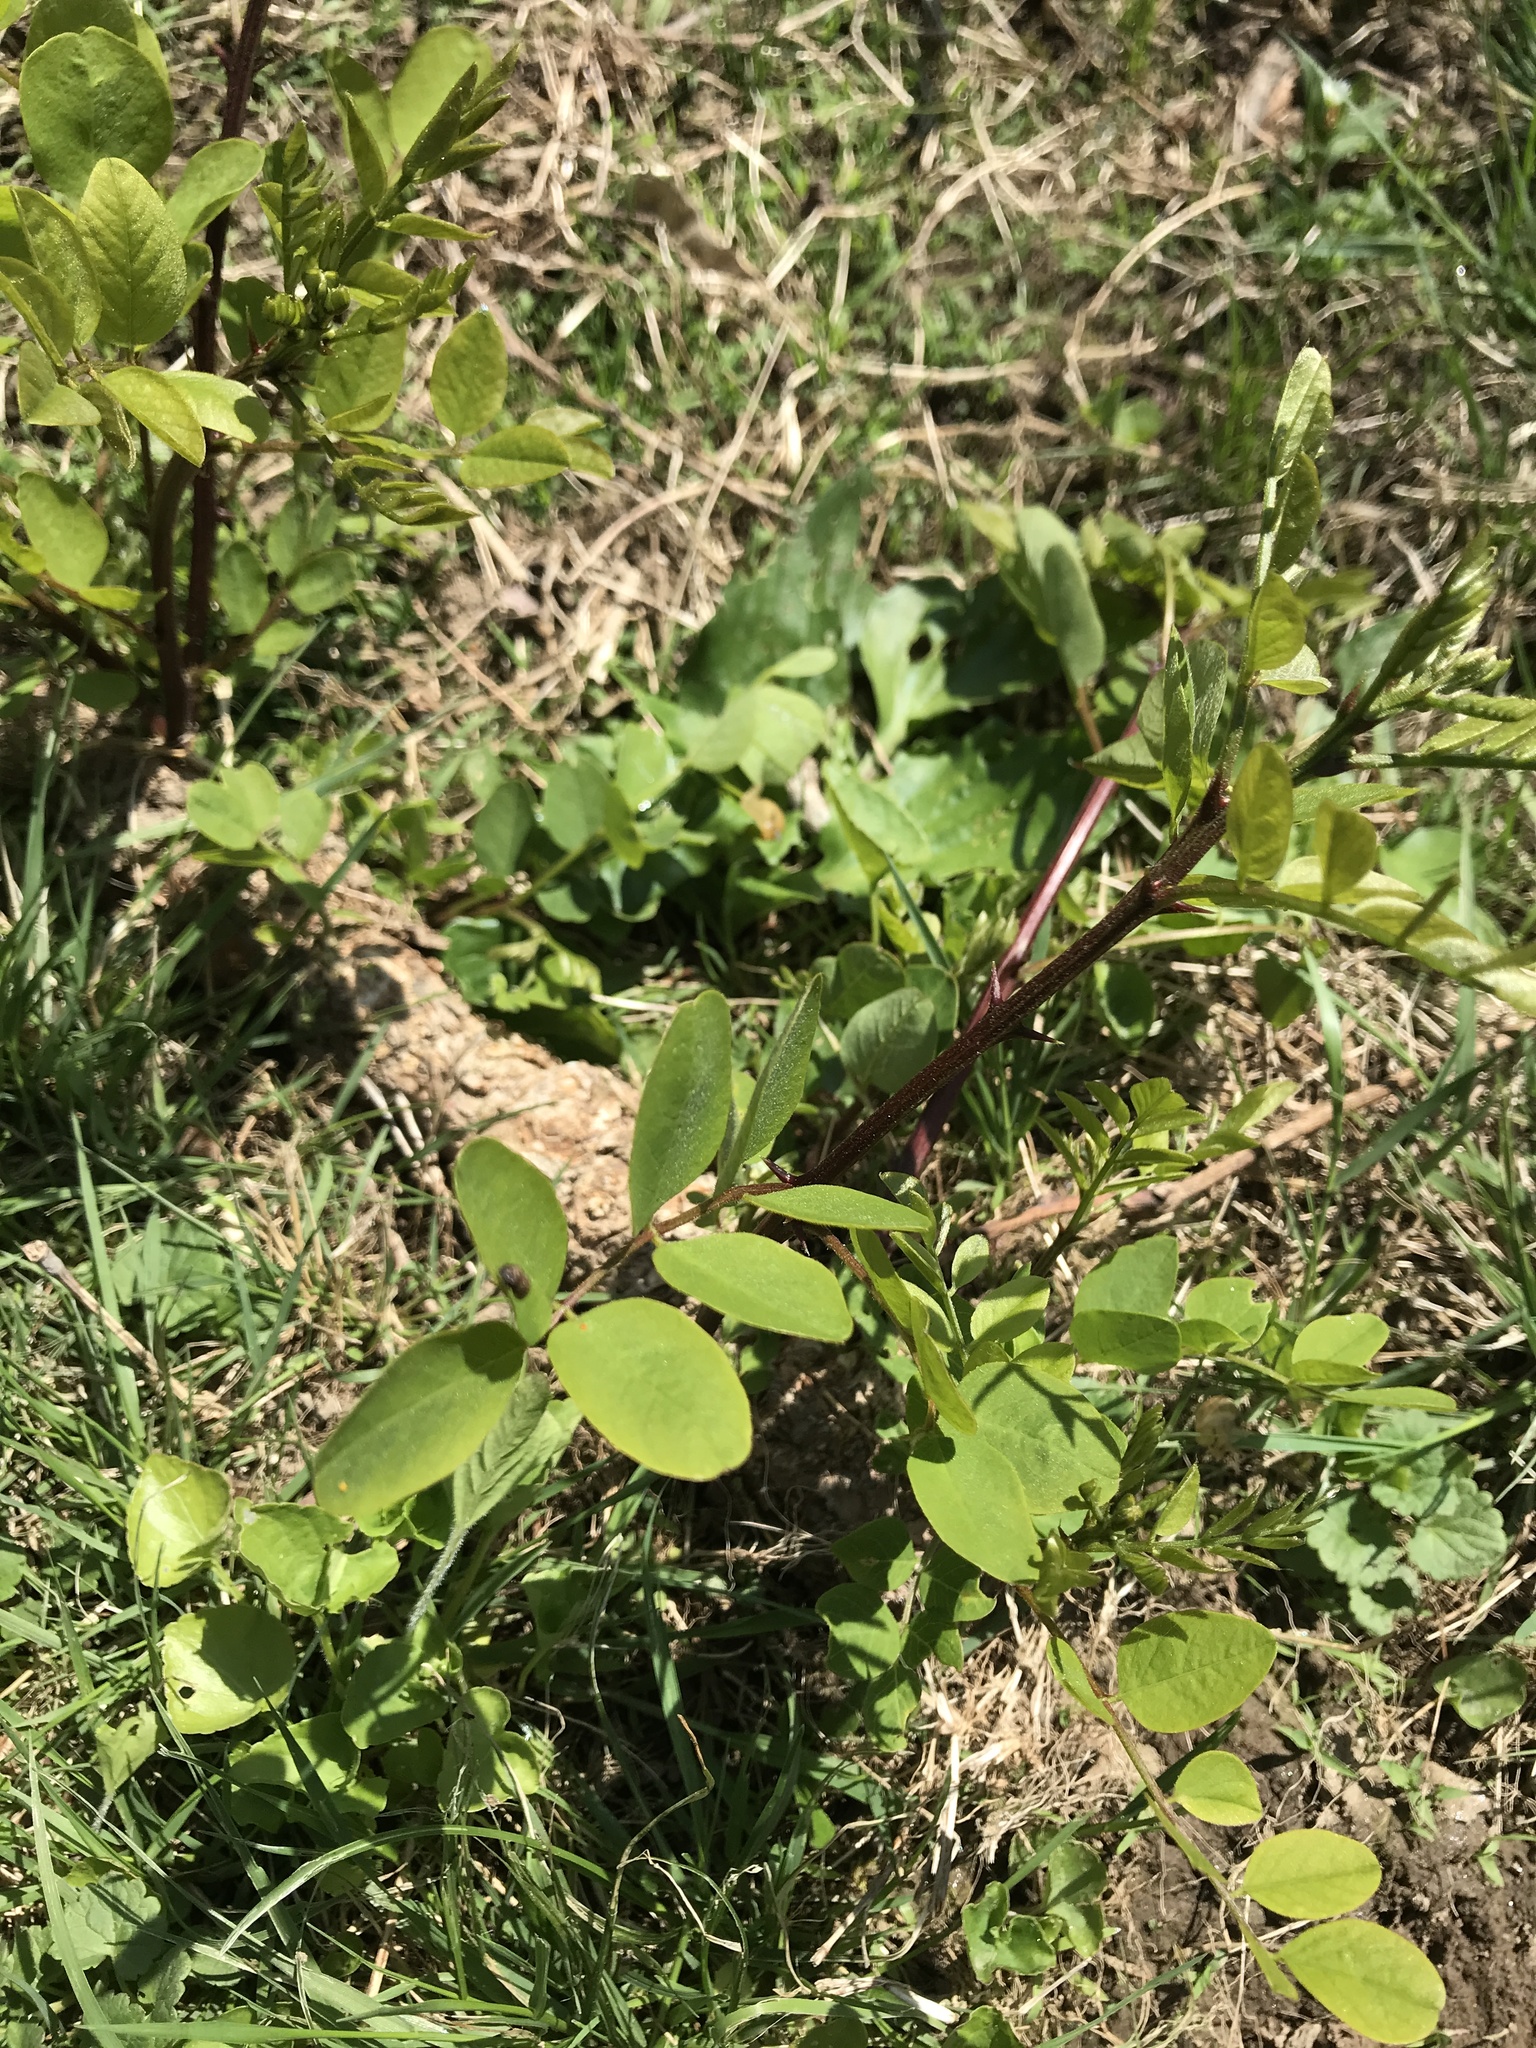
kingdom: Plantae
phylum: Tracheophyta
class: Magnoliopsida
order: Fabales
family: Fabaceae
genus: Robinia
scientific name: Robinia pseudoacacia
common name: Black locust
